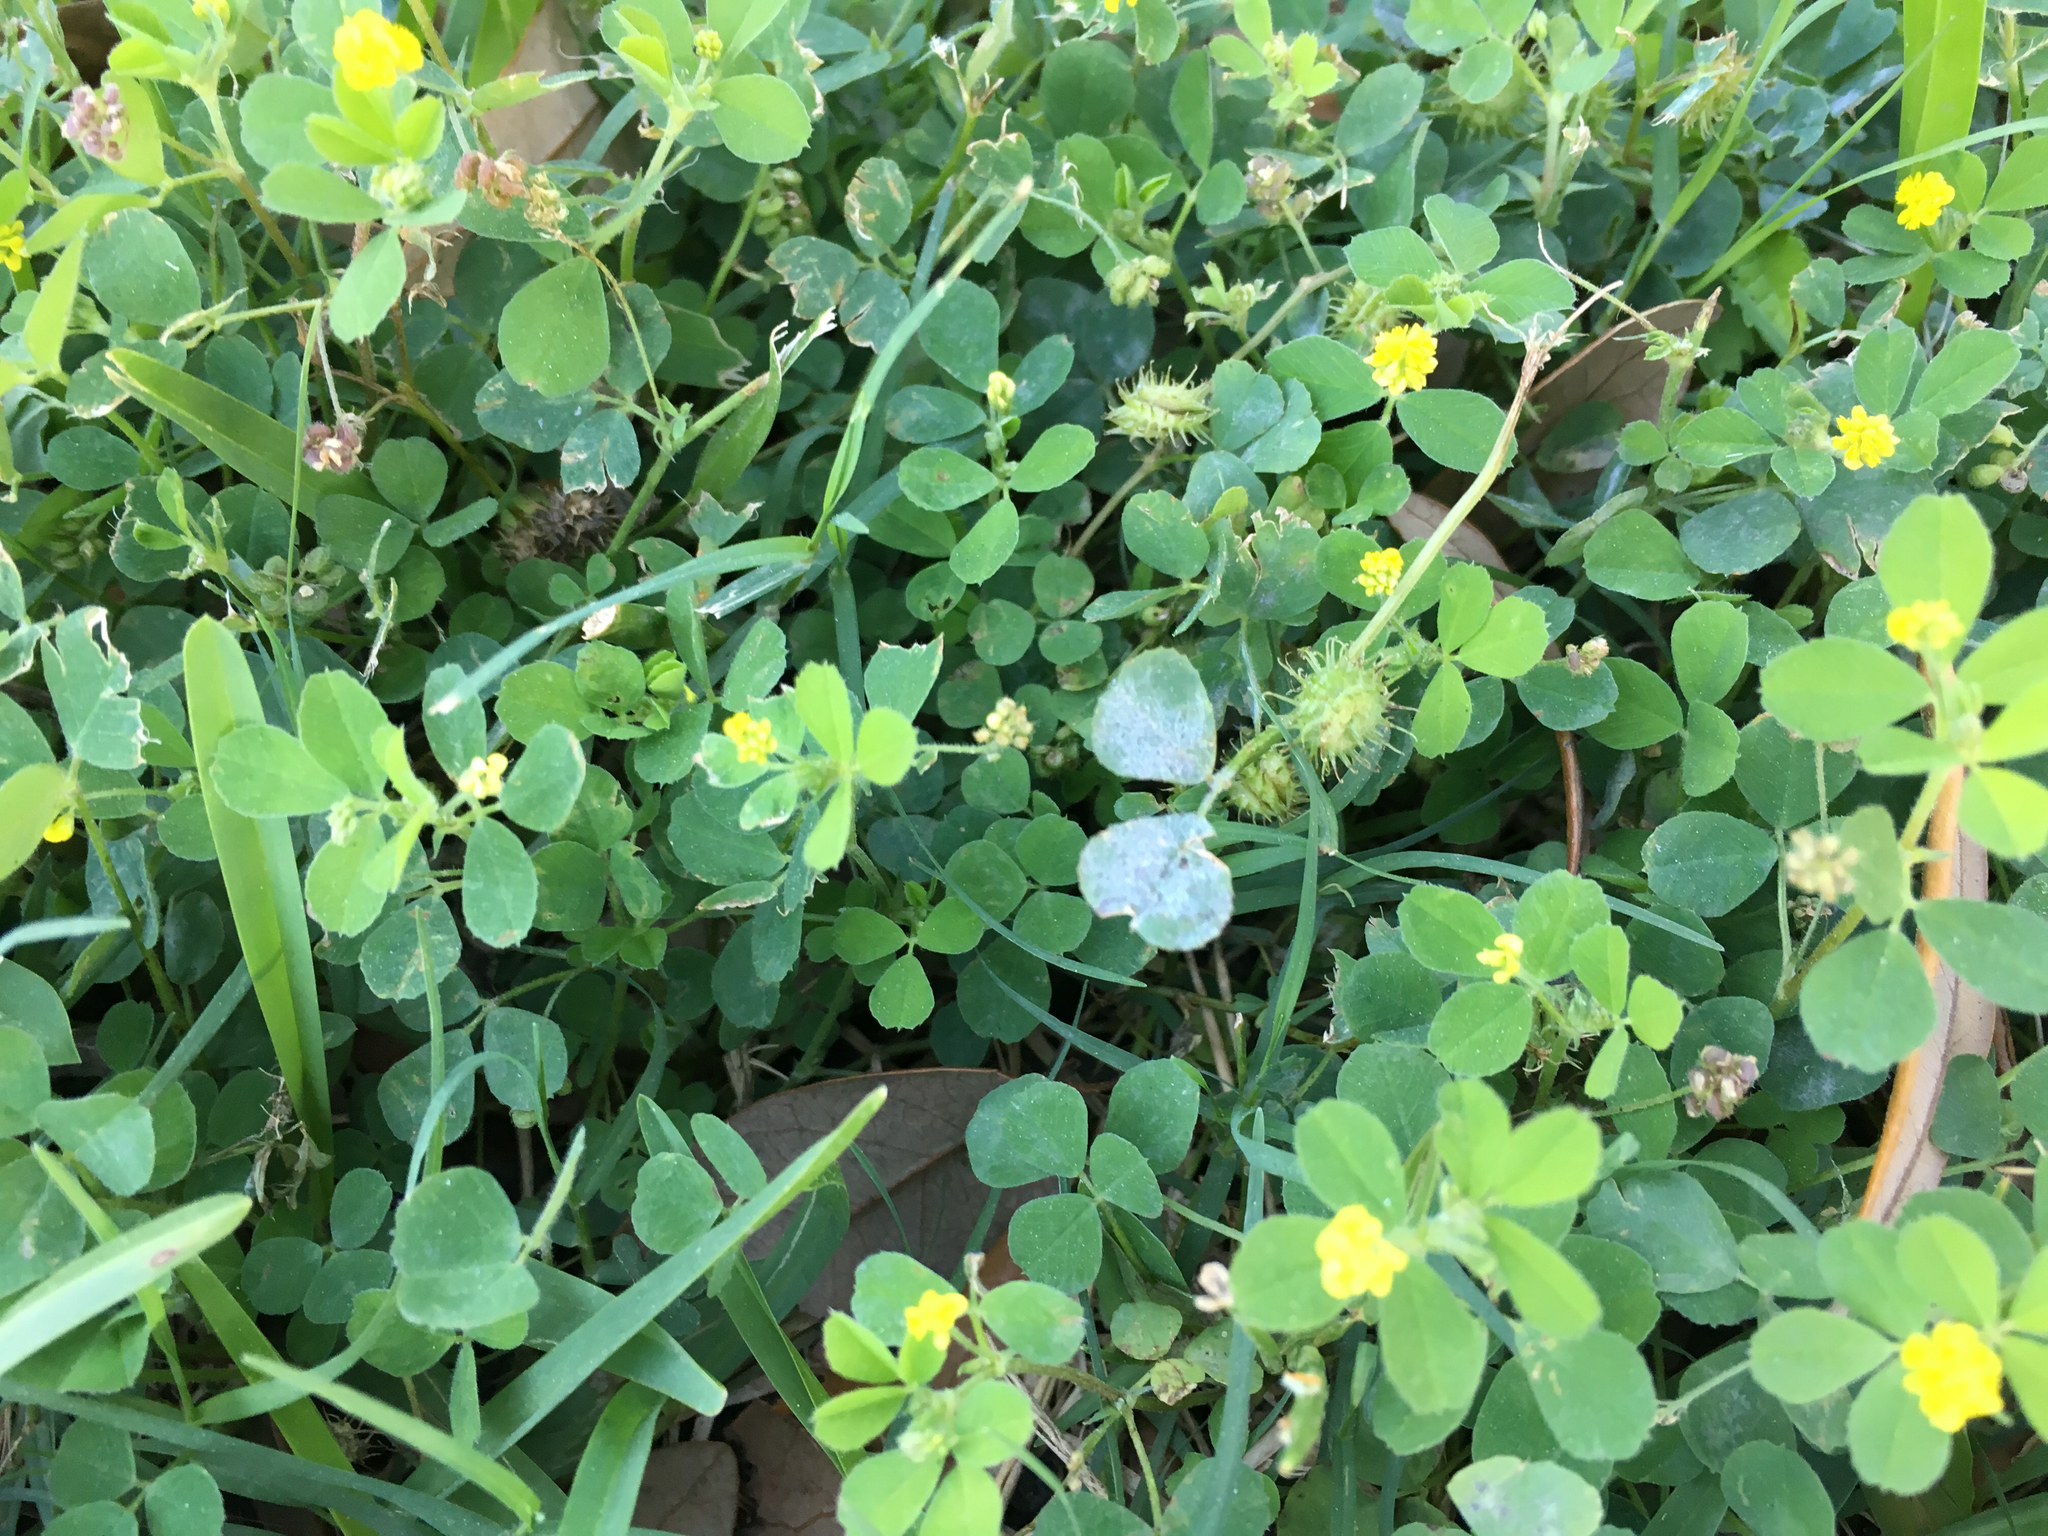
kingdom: Plantae
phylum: Tracheophyta
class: Magnoliopsida
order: Fabales
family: Fabaceae
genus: Medicago
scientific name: Medicago polymorpha
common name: Burclover
